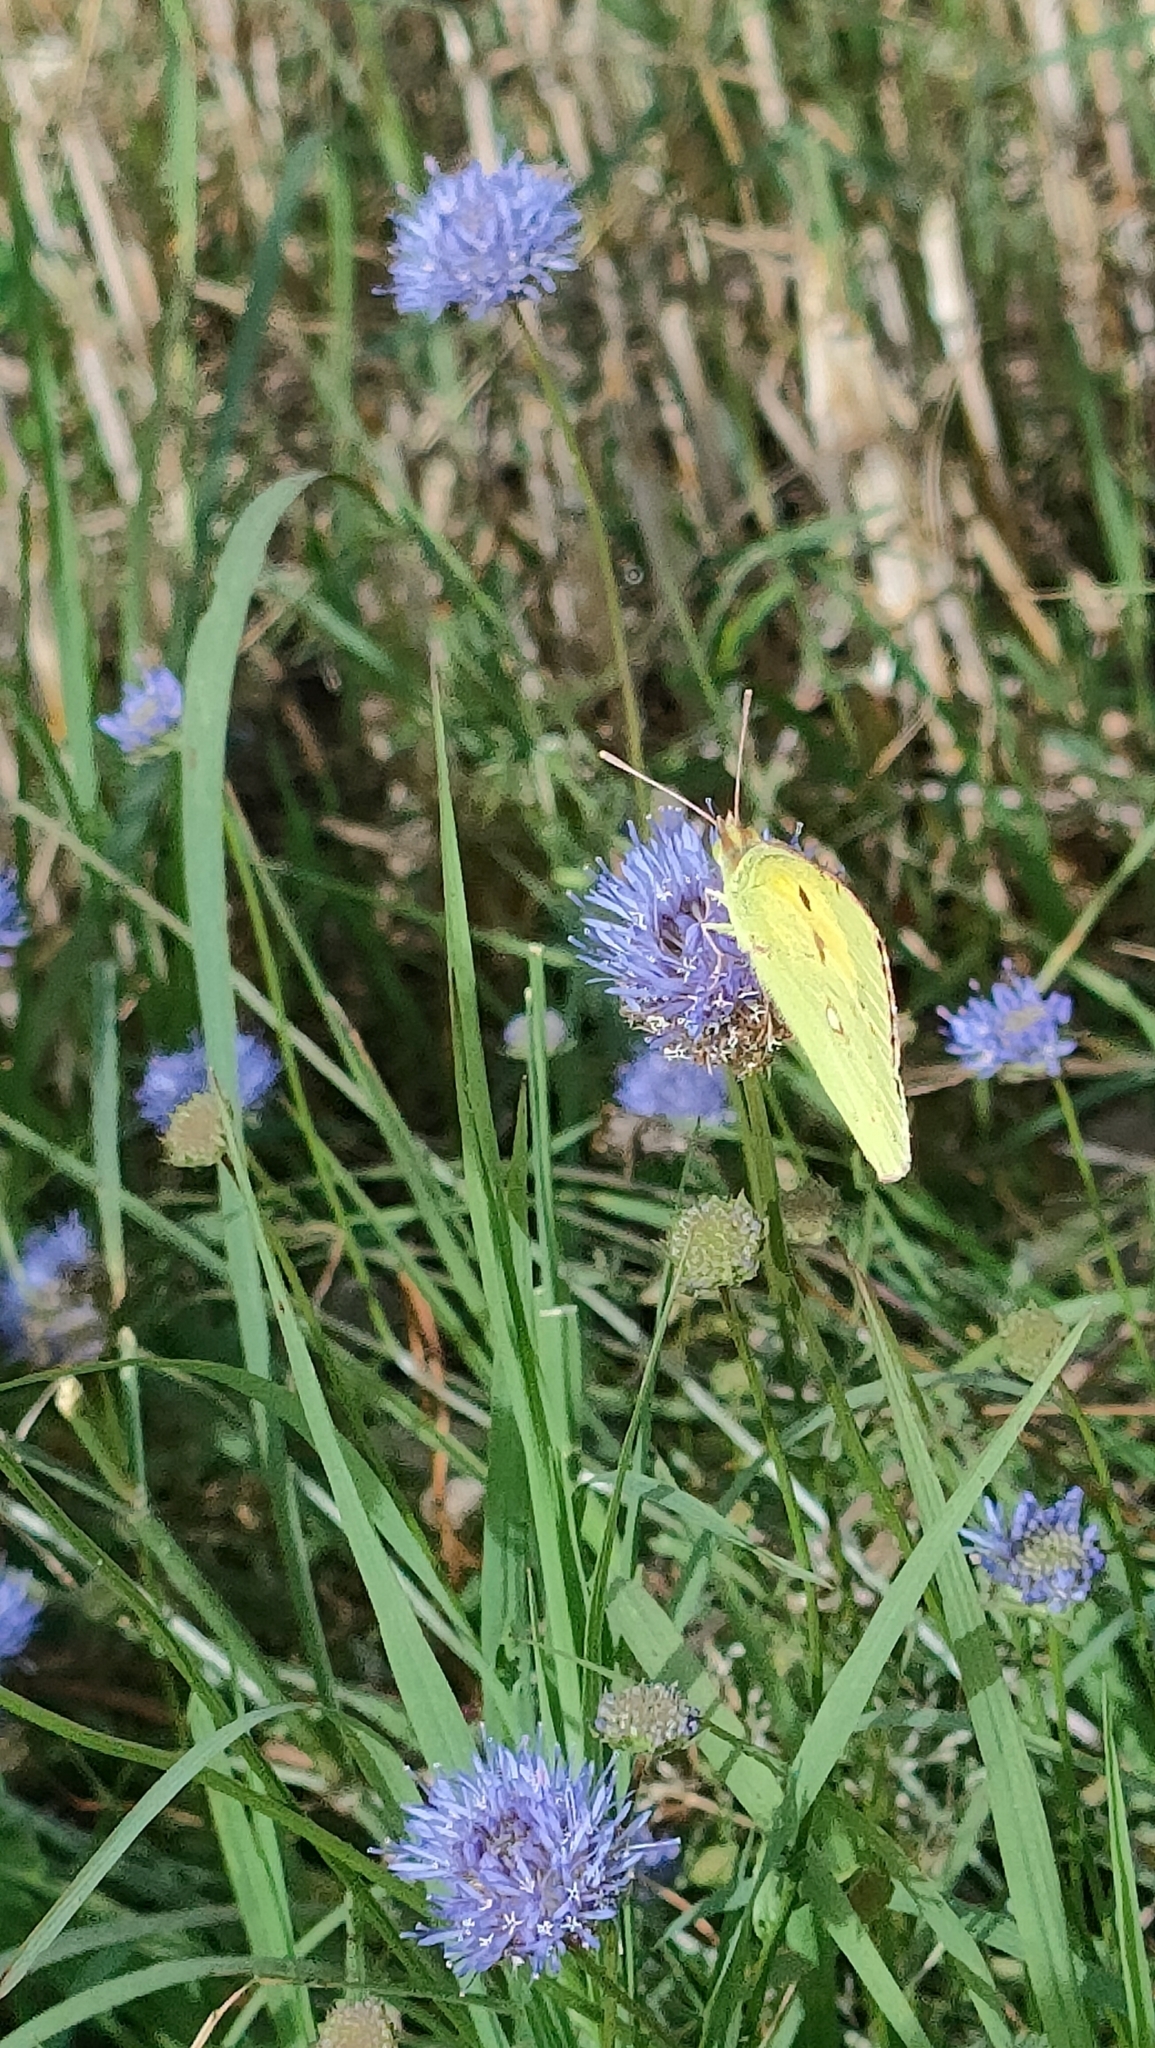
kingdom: Animalia
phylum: Arthropoda
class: Insecta
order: Lepidoptera
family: Pieridae
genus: Colias
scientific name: Colias croceus
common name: Clouded yellow
